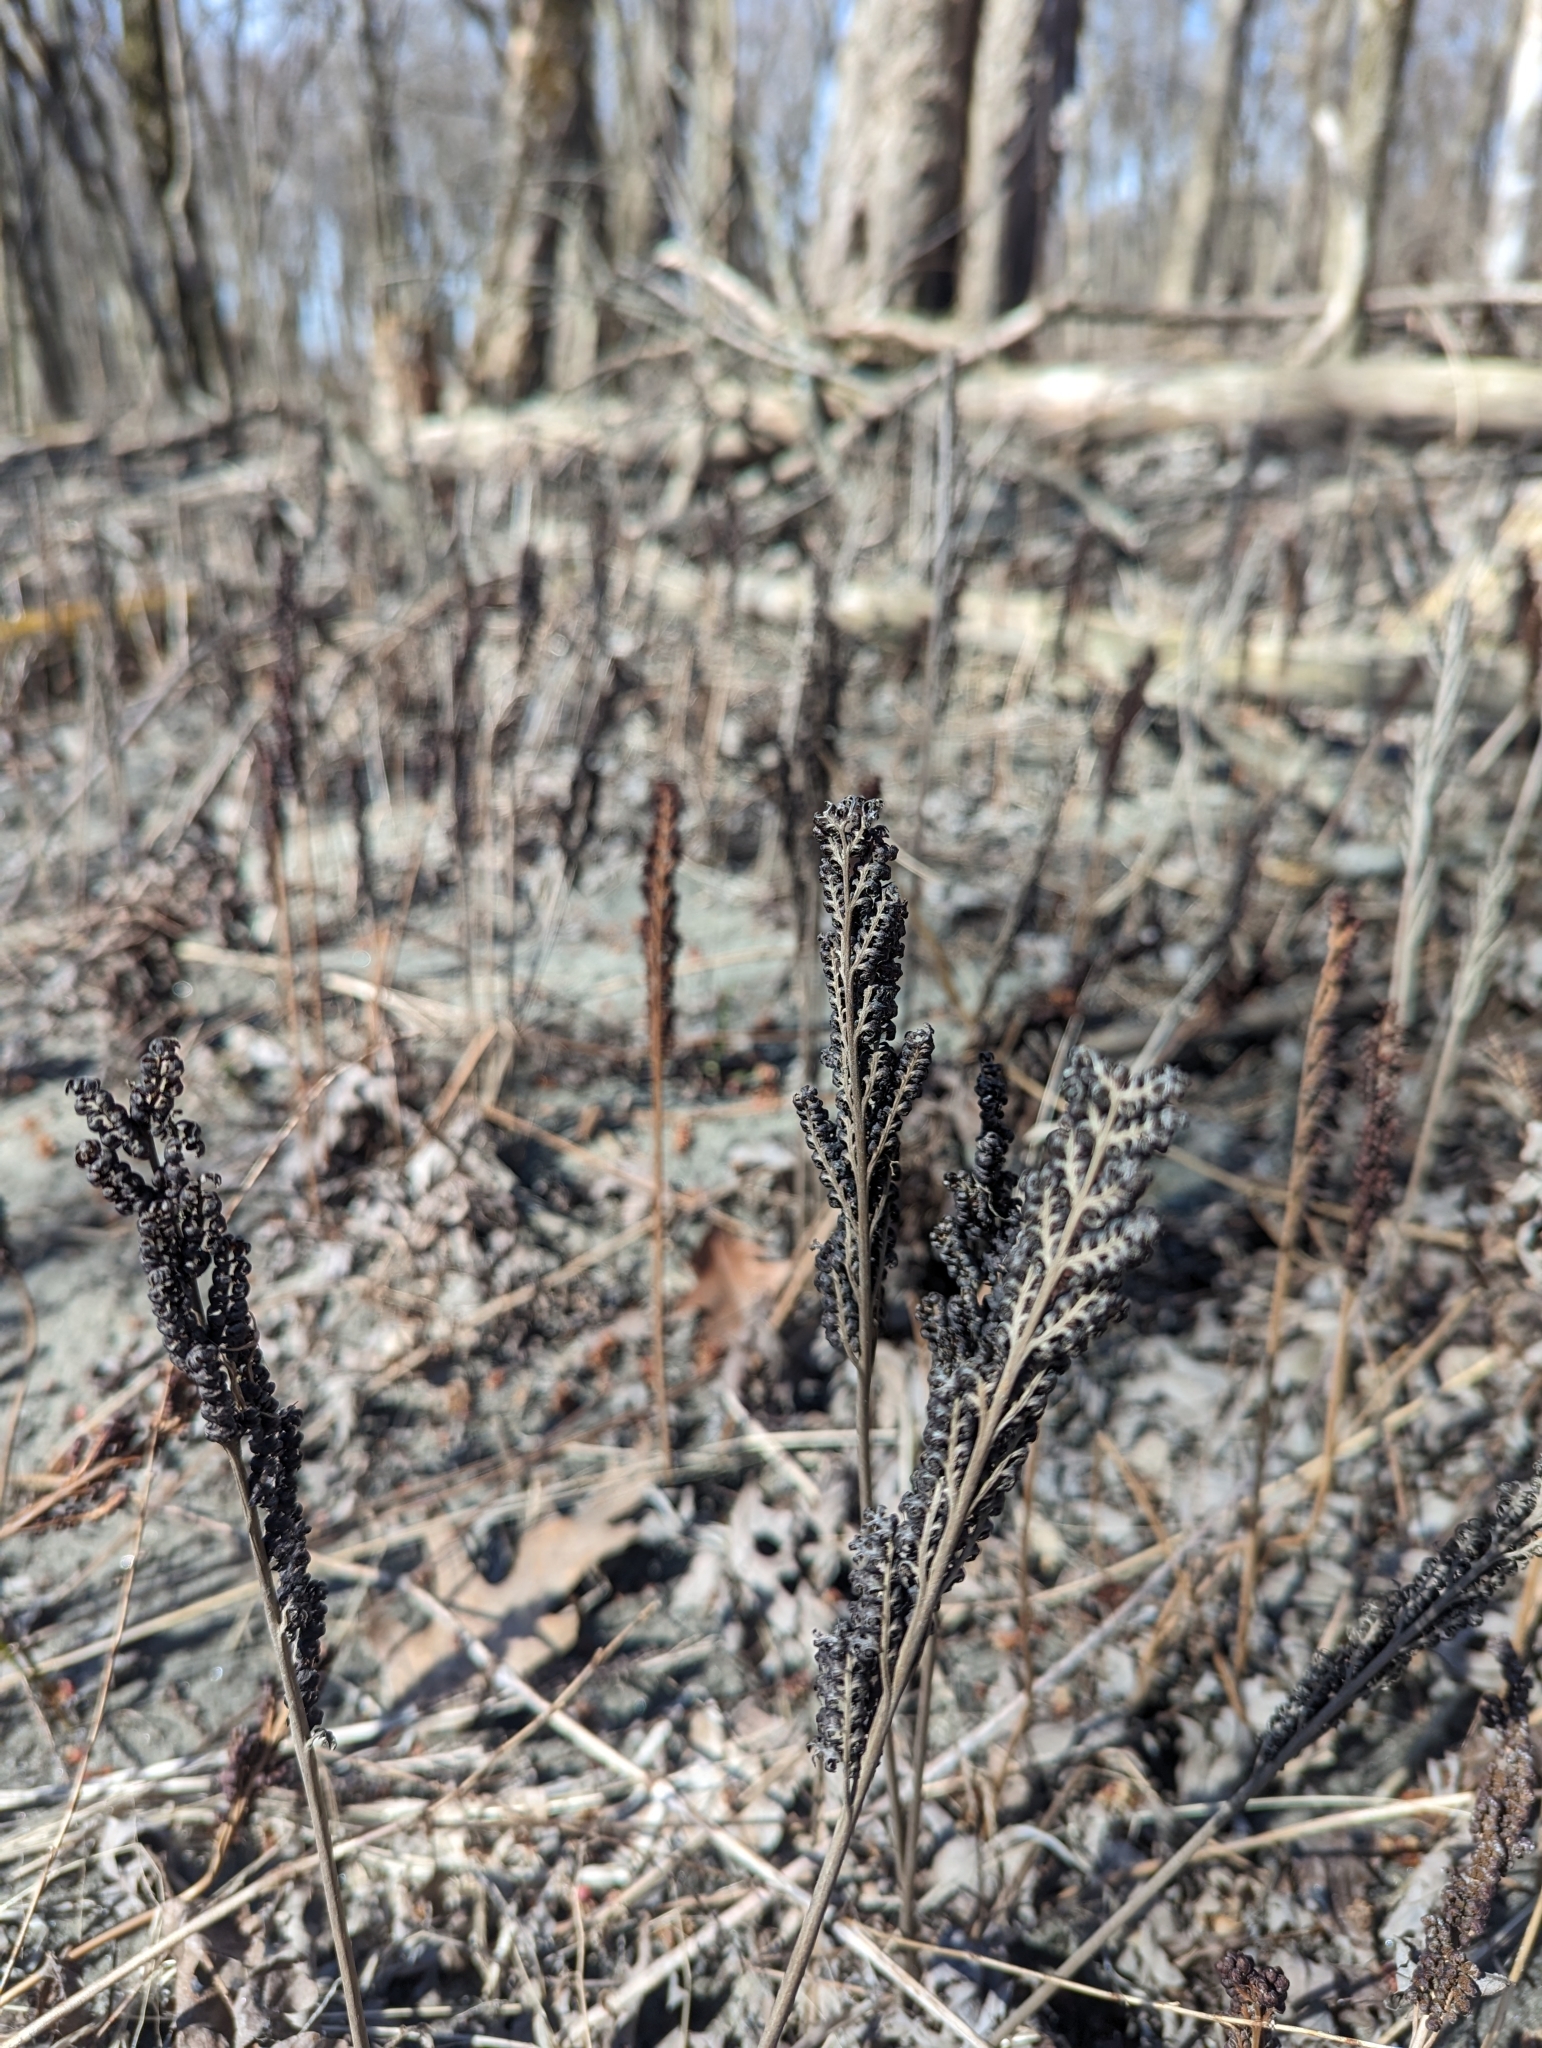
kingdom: Plantae
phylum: Tracheophyta
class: Polypodiopsida
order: Polypodiales
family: Onocleaceae
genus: Onoclea
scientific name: Onoclea sensibilis
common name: Sensitive fern
